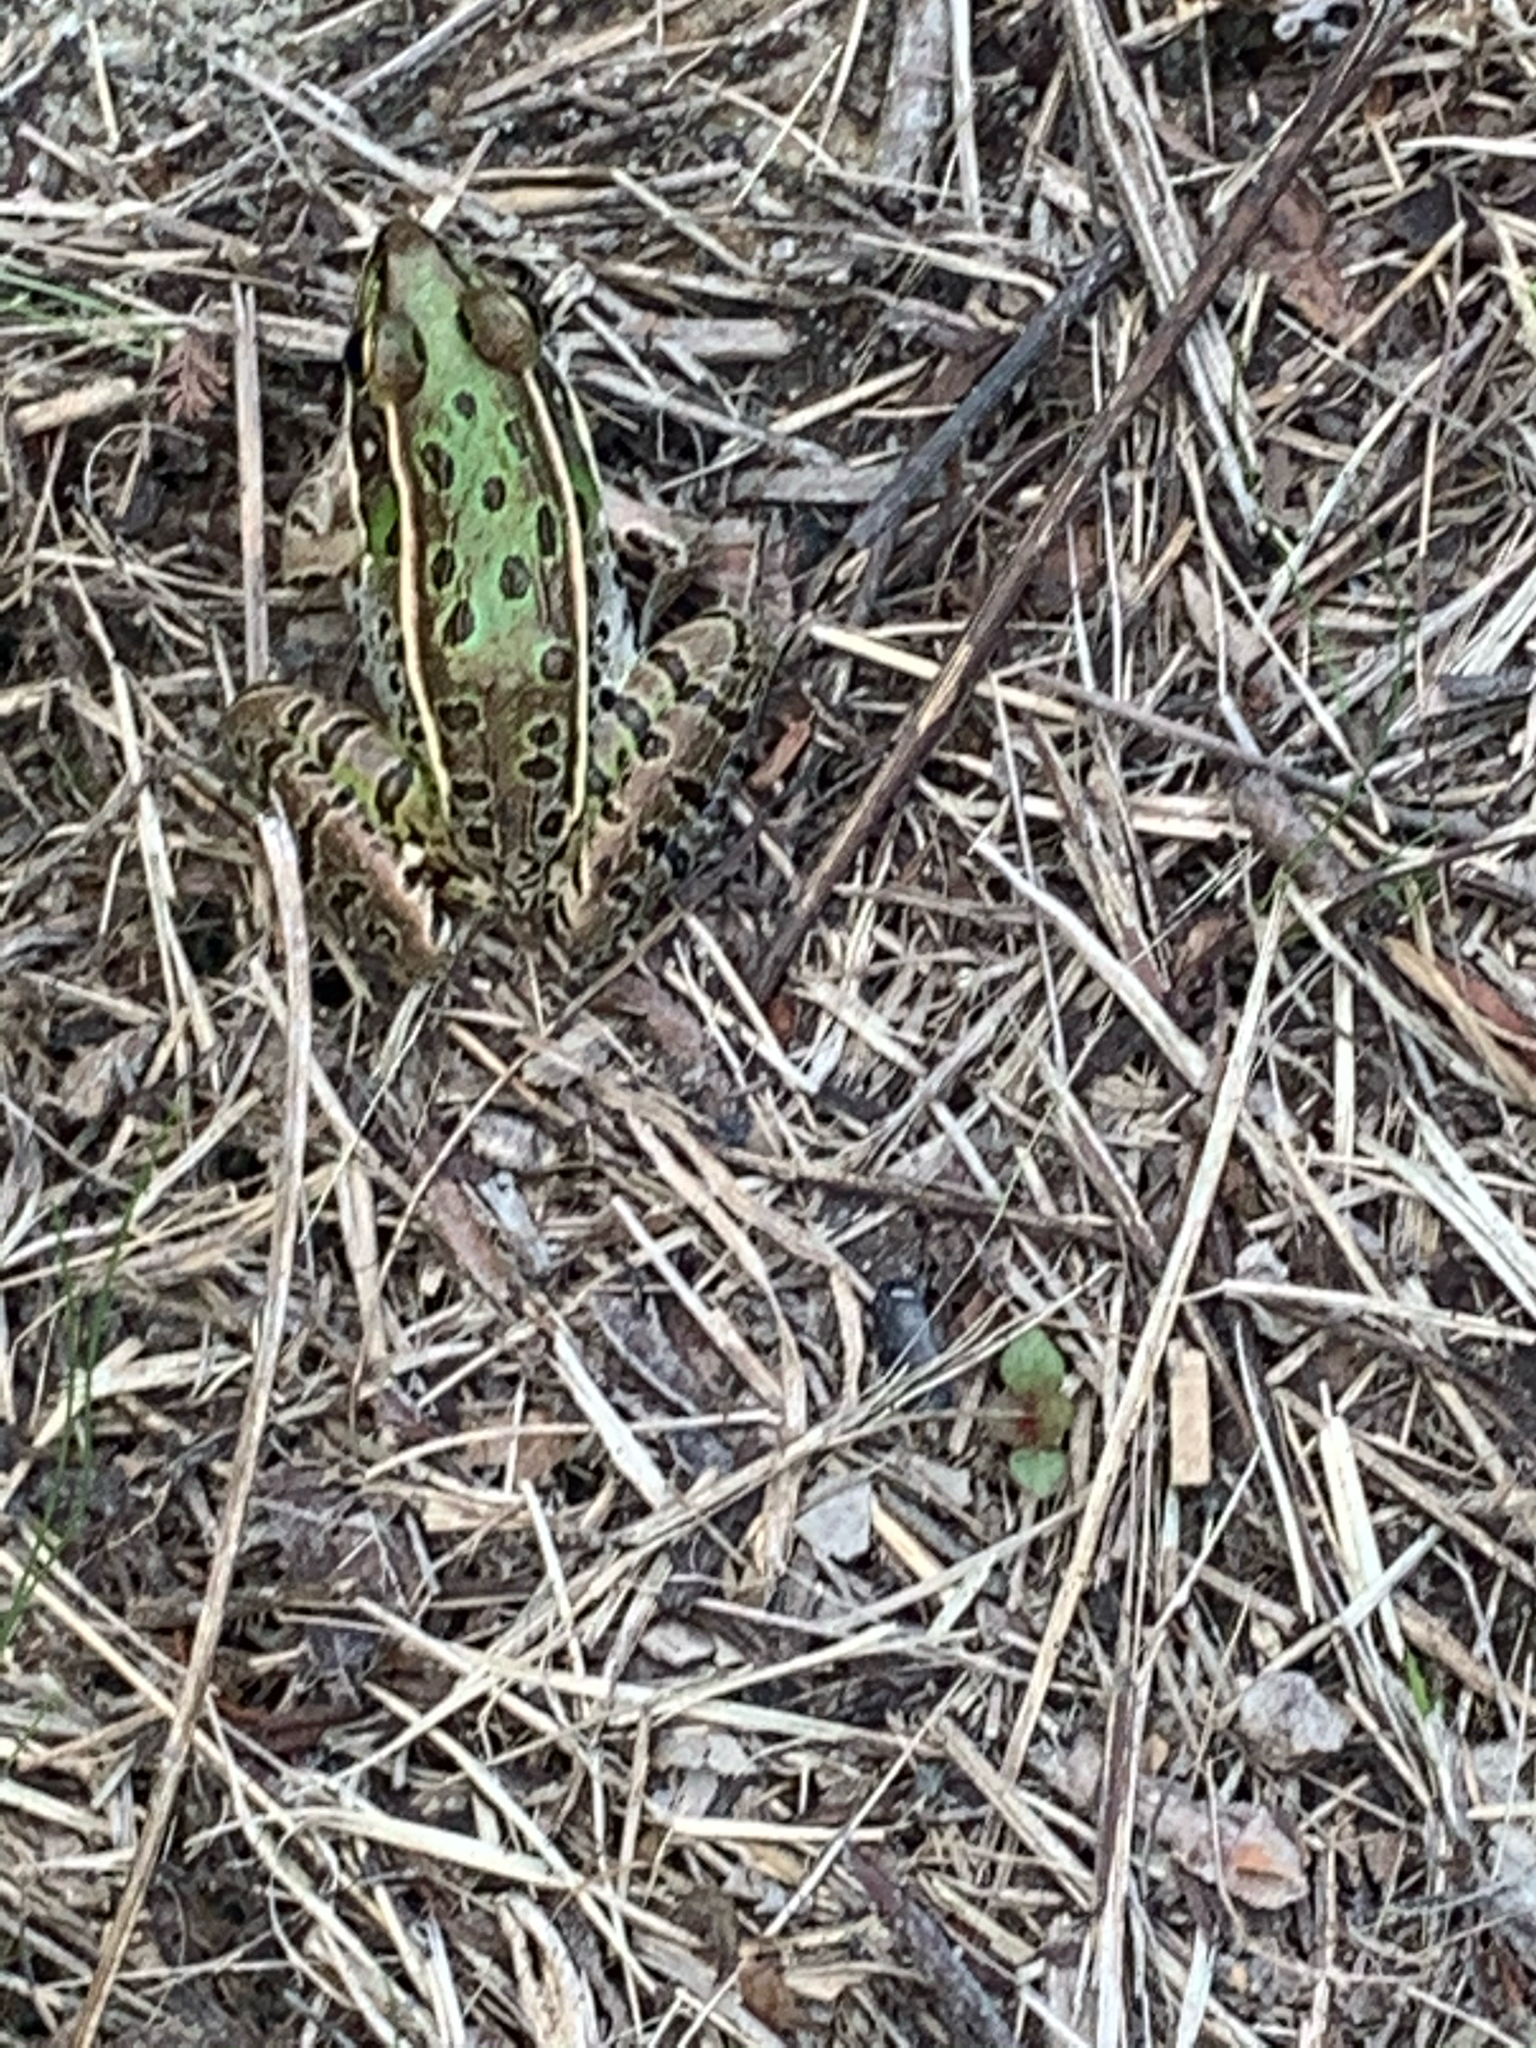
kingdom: Animalia
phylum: Chordata
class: Amphibia
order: Anura
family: Ranidae
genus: Lithobates
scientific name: Lithobates sphenocephalus
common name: Southern leopard frog
